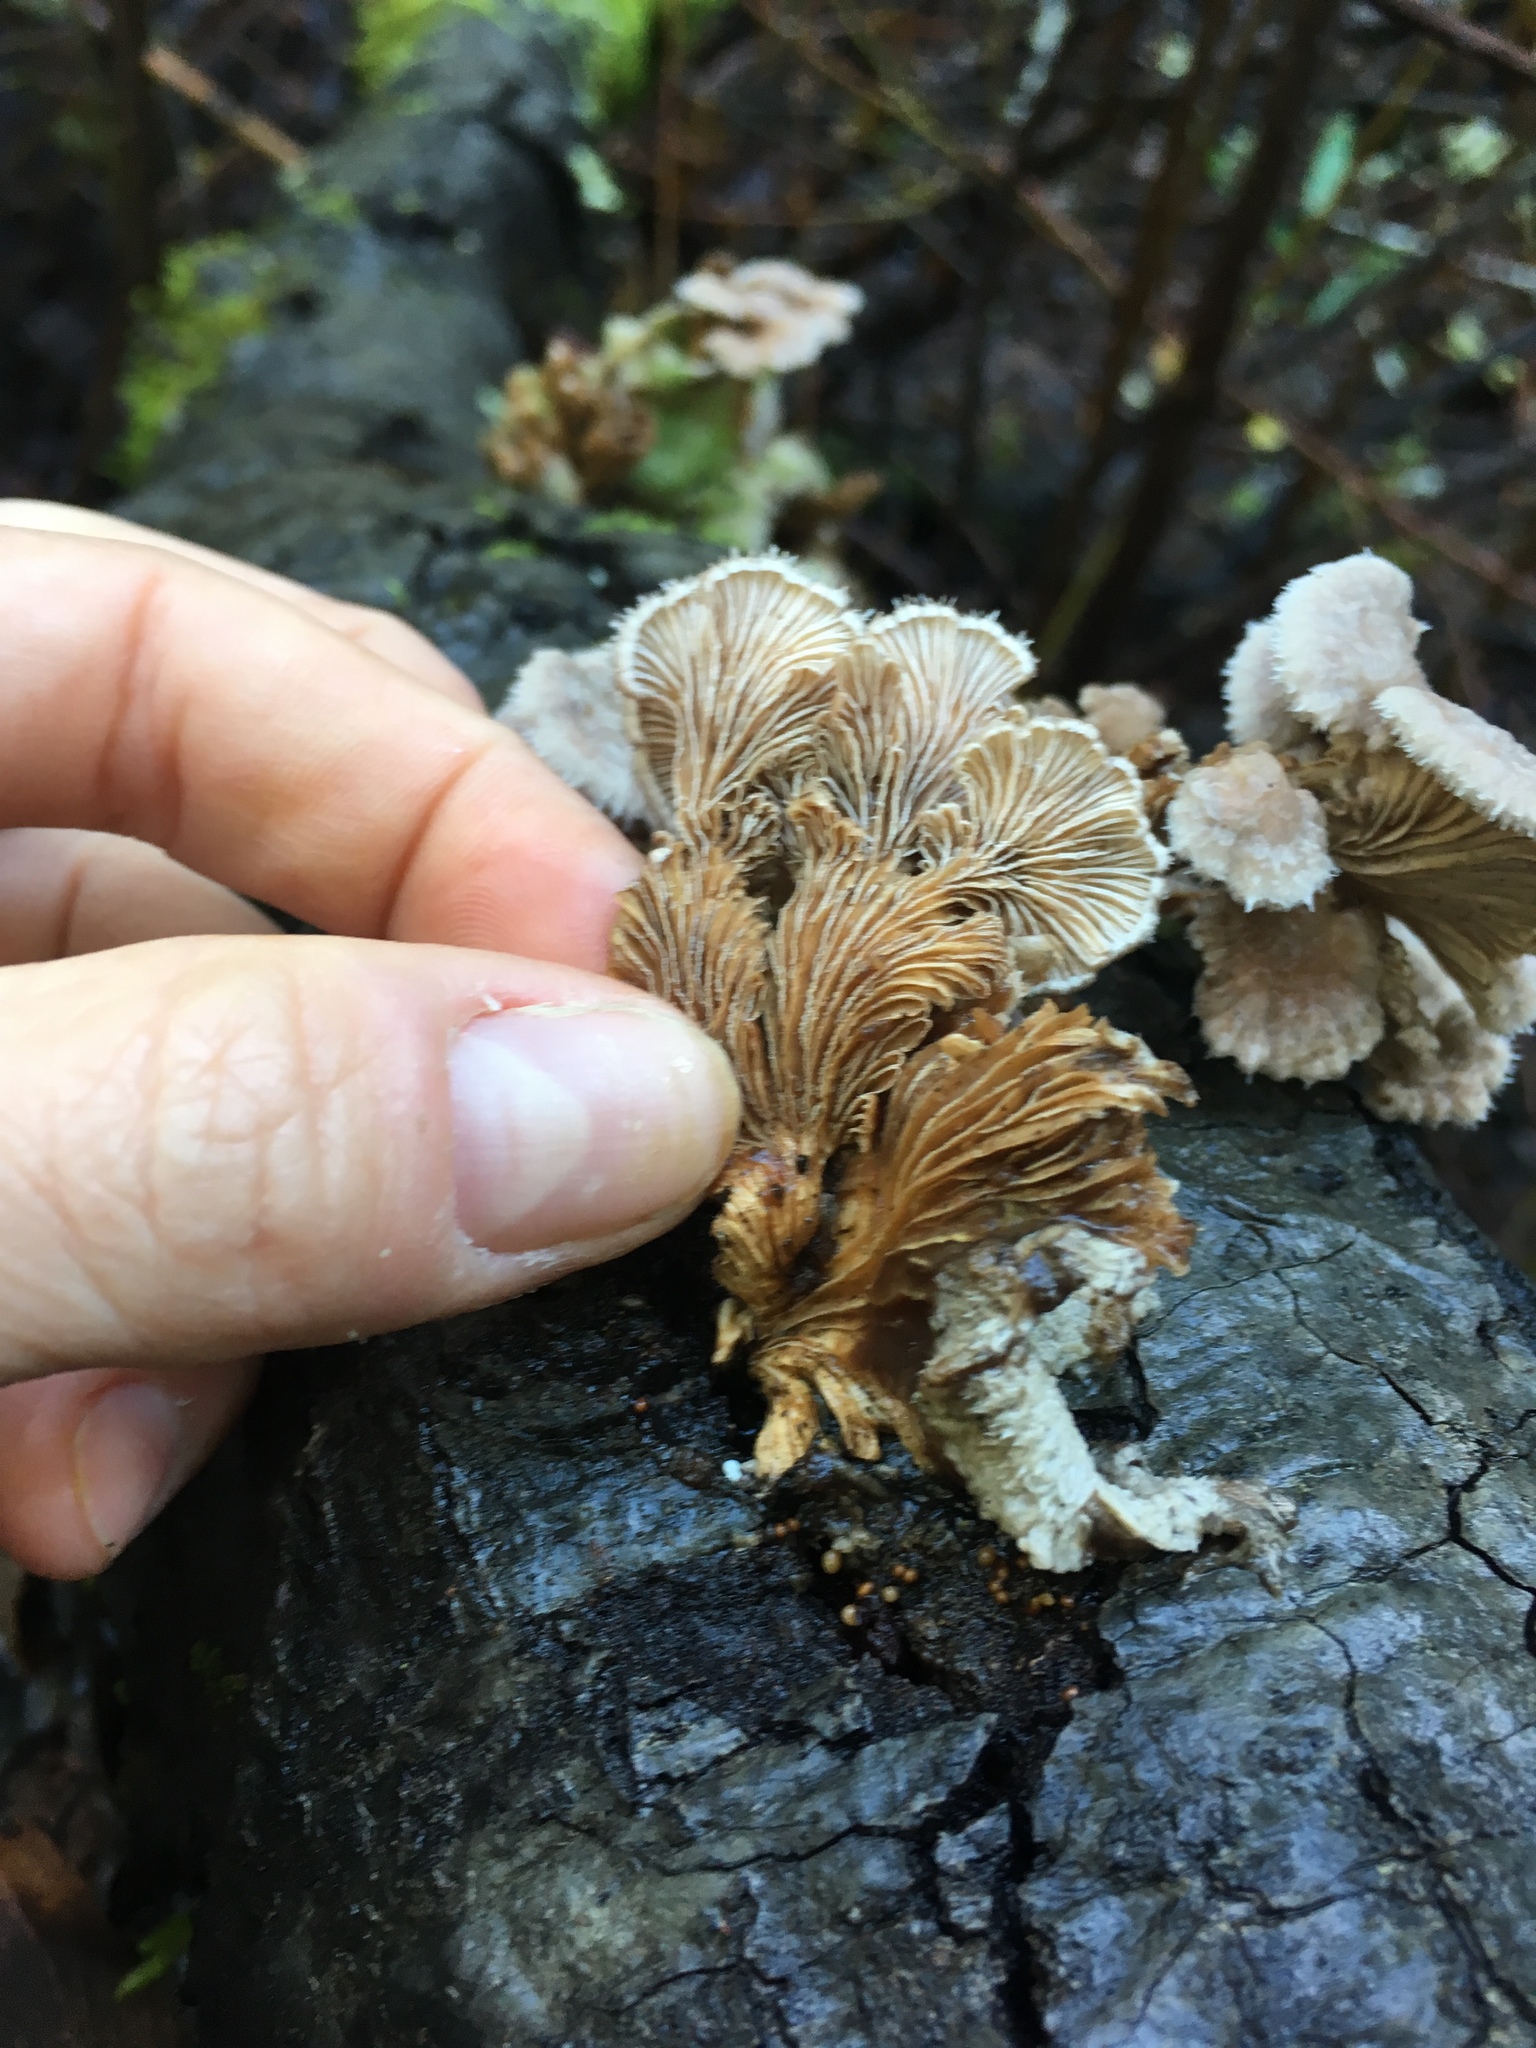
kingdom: Fungi
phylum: Basidiomycota
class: Agaricomycetes
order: Agaricales
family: Schizophyllaceae
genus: Schizophyllum
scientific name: Schizophyllum commune
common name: Common porecrust
